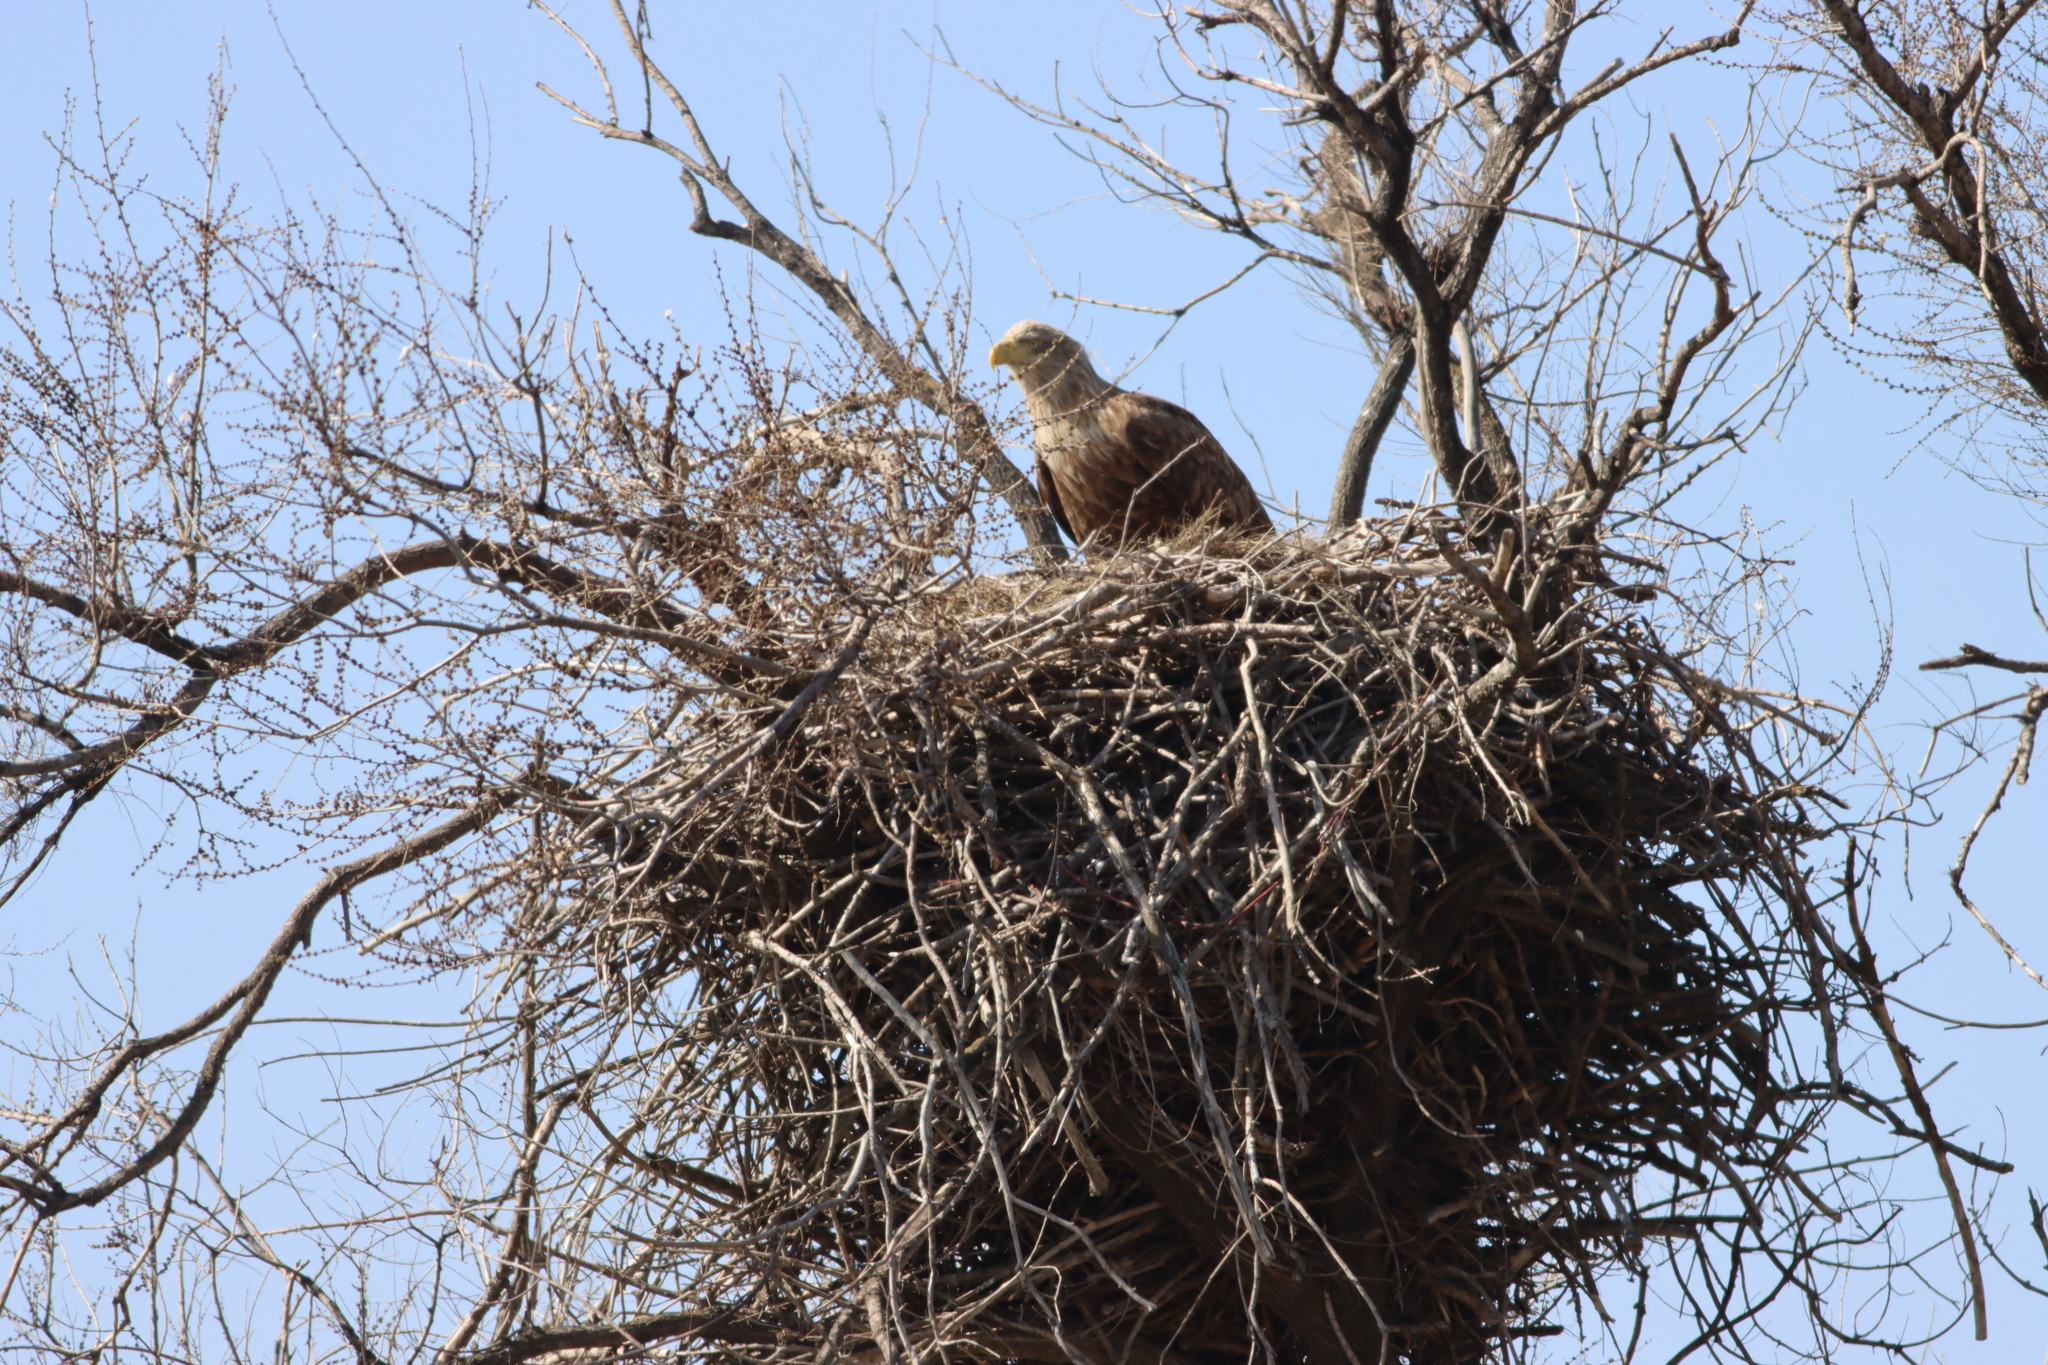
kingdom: Animalia
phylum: Chordata
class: Aves
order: Accipitriformes
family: Accipitridae
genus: Haliaeetus
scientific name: Haliaeetus albicilla
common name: White-tailed eagle
